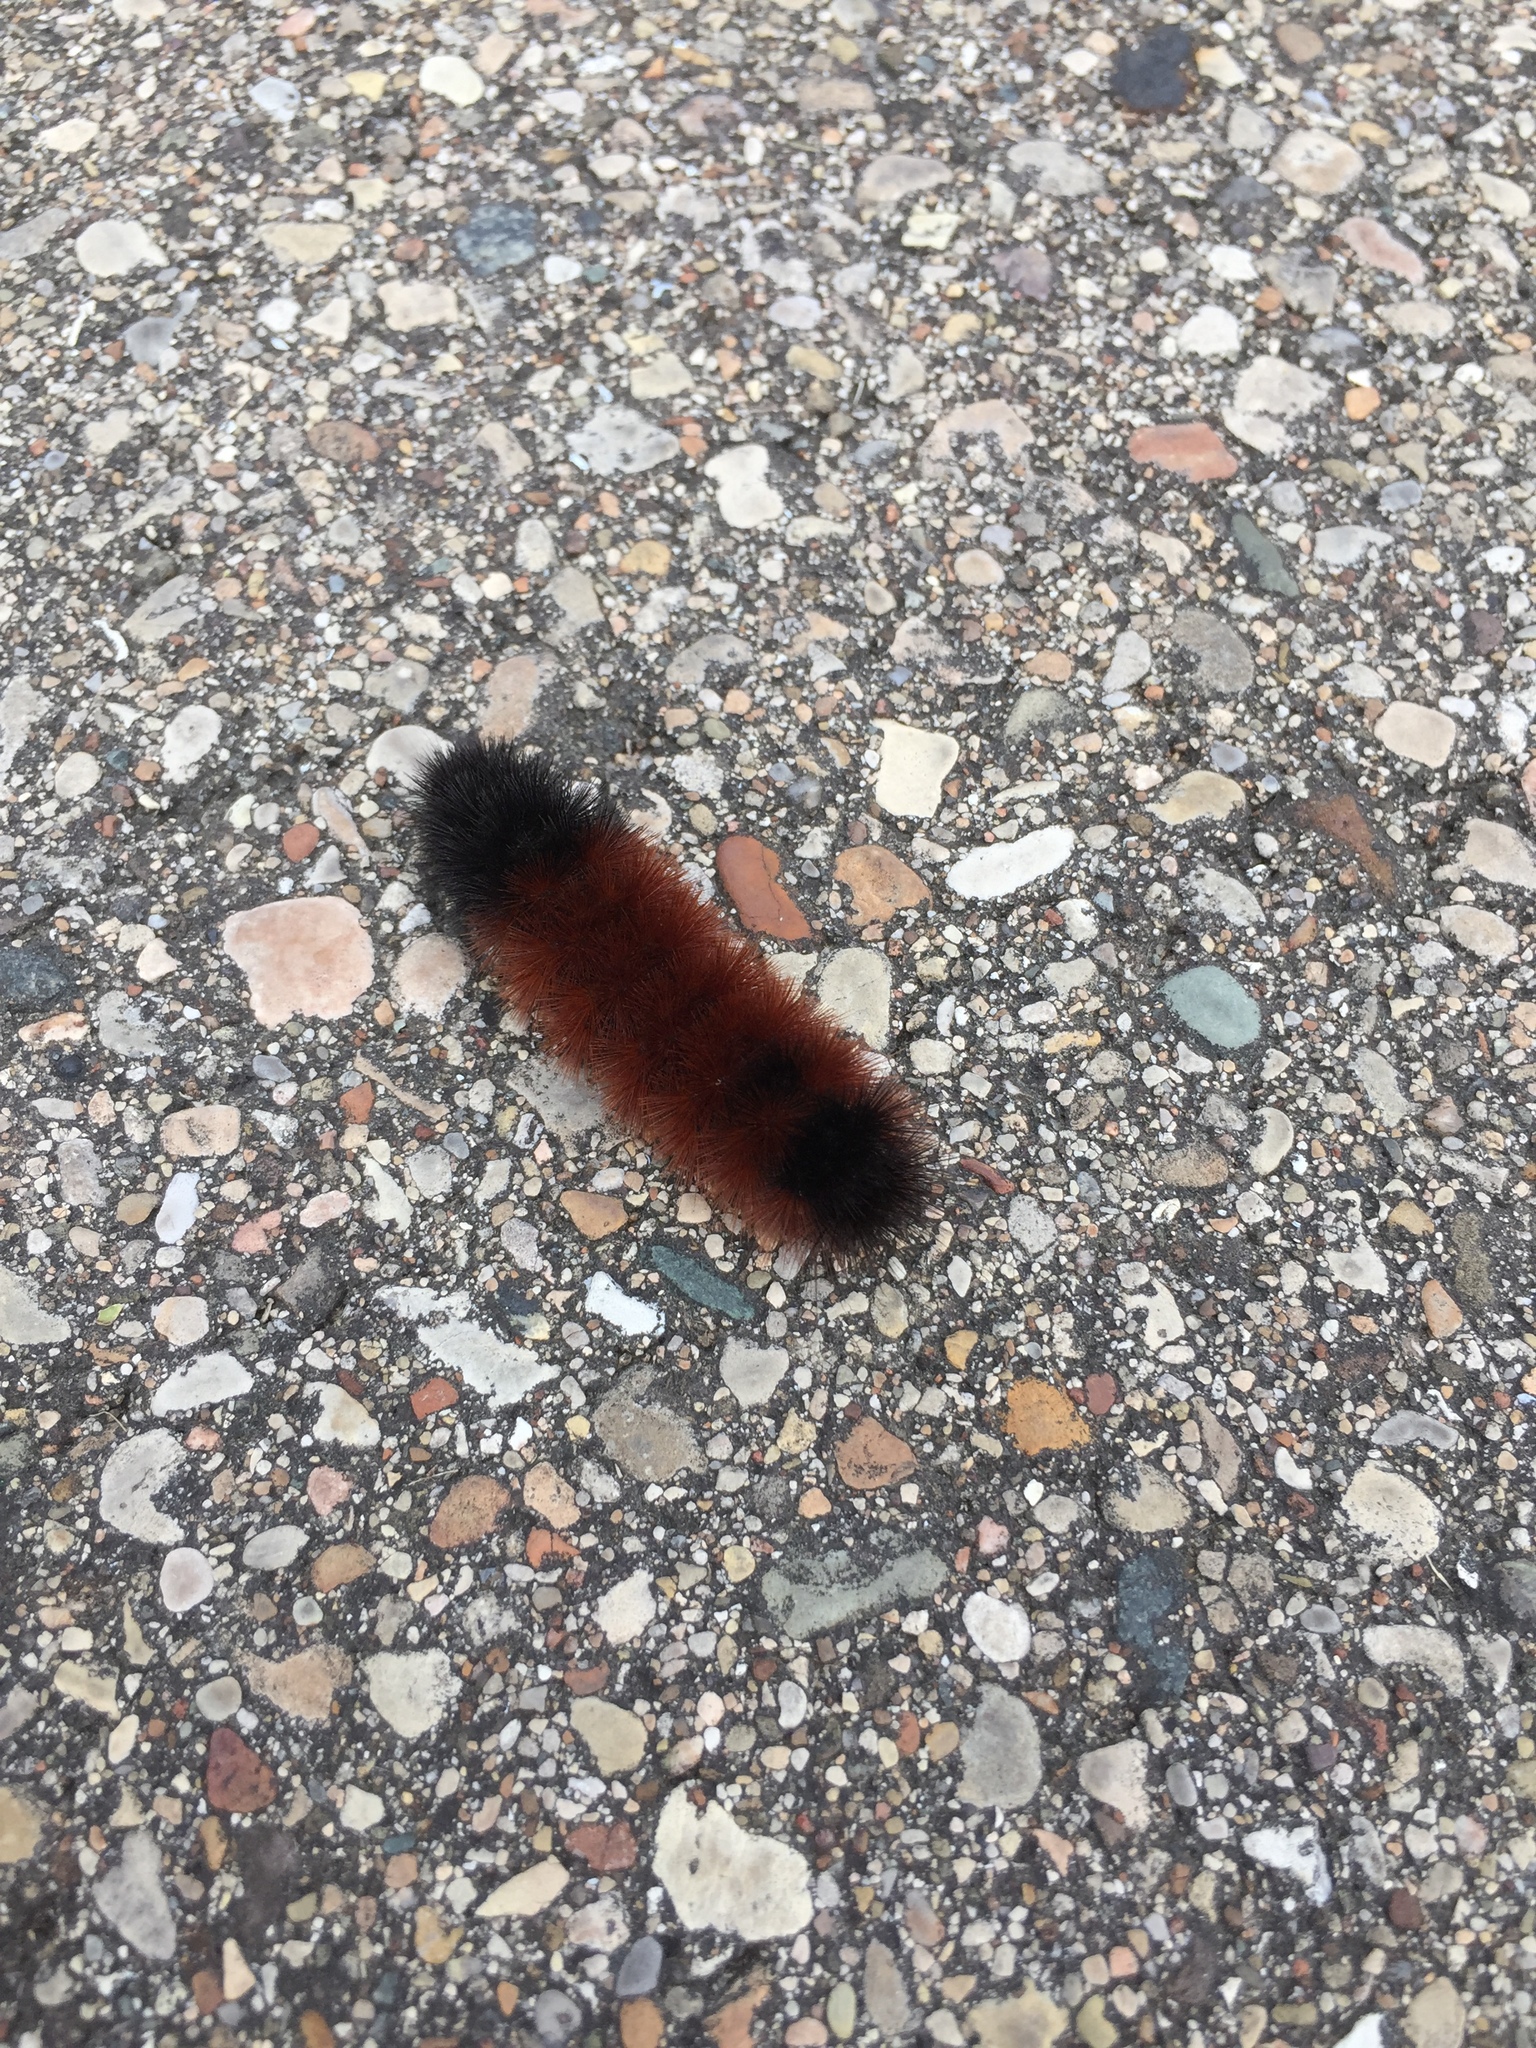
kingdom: Animalia
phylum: Arthropoda
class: Insecta
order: Lepidoptera
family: Erebidae
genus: Pyrrharctia
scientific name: Pyrrharctia isabella
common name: Isabella tiger moth
